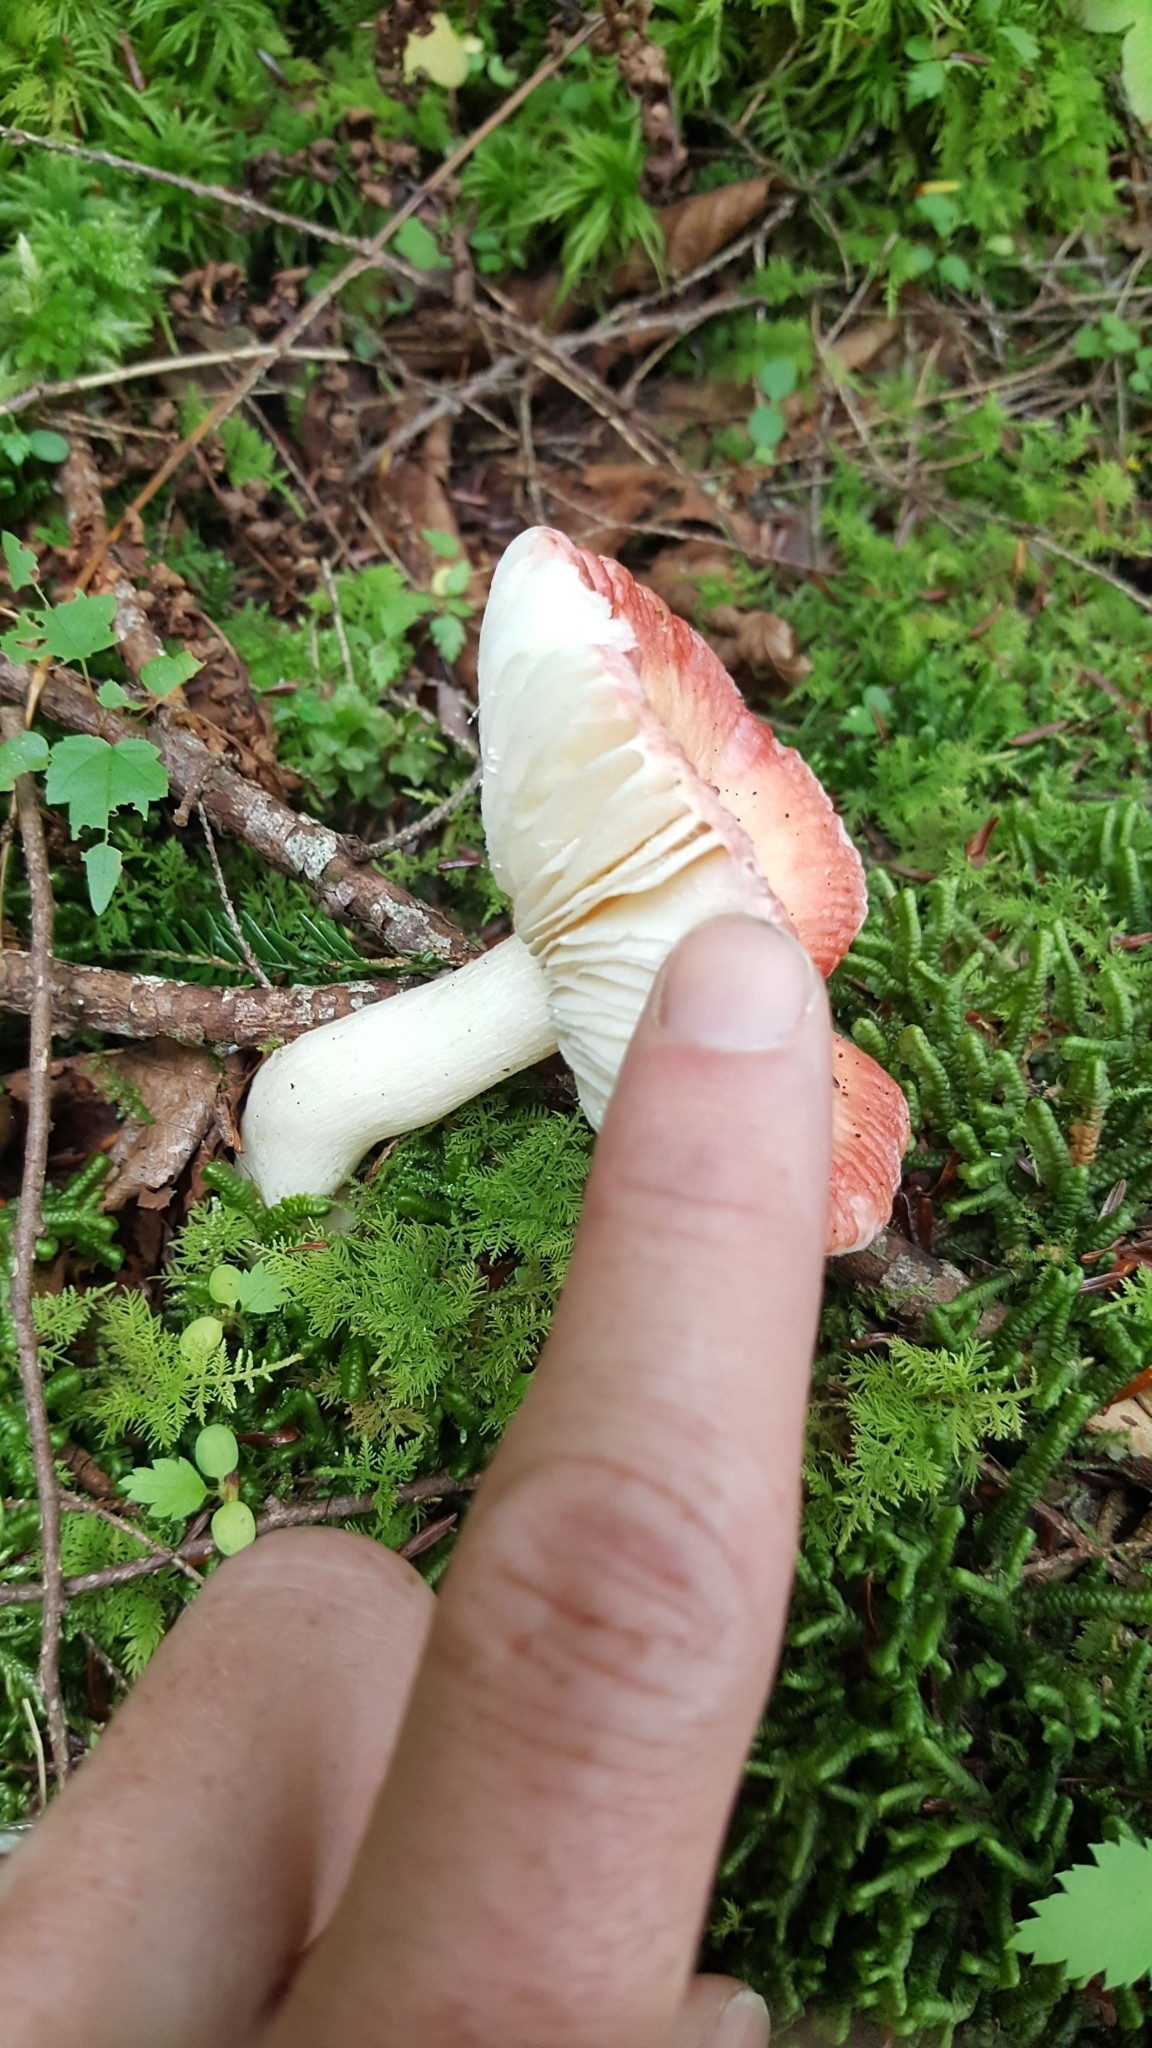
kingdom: Fungi
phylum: Basidiomycota
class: Agaricomycetes
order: Russulales
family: Russulaceae
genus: Russula
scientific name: Russula
